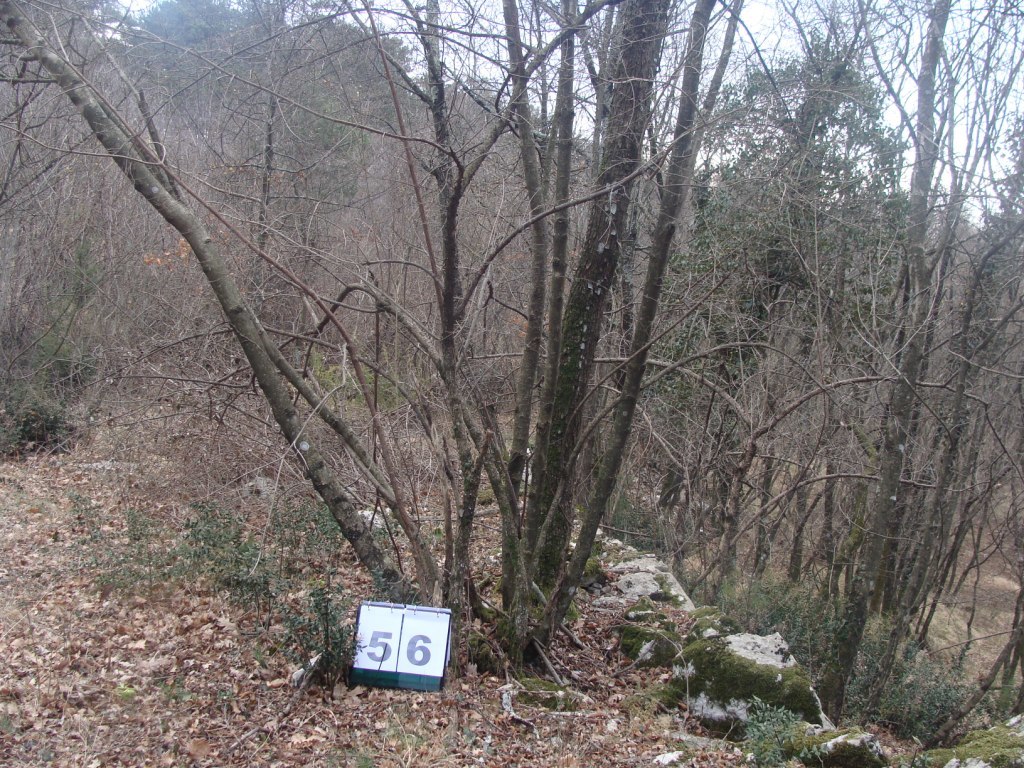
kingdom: Plantae
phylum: Tracheophyta
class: Magnoliopsida
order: Cornales
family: Cornaceae
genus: Cornus
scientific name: Cornus mas
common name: Cornelian-cherry
